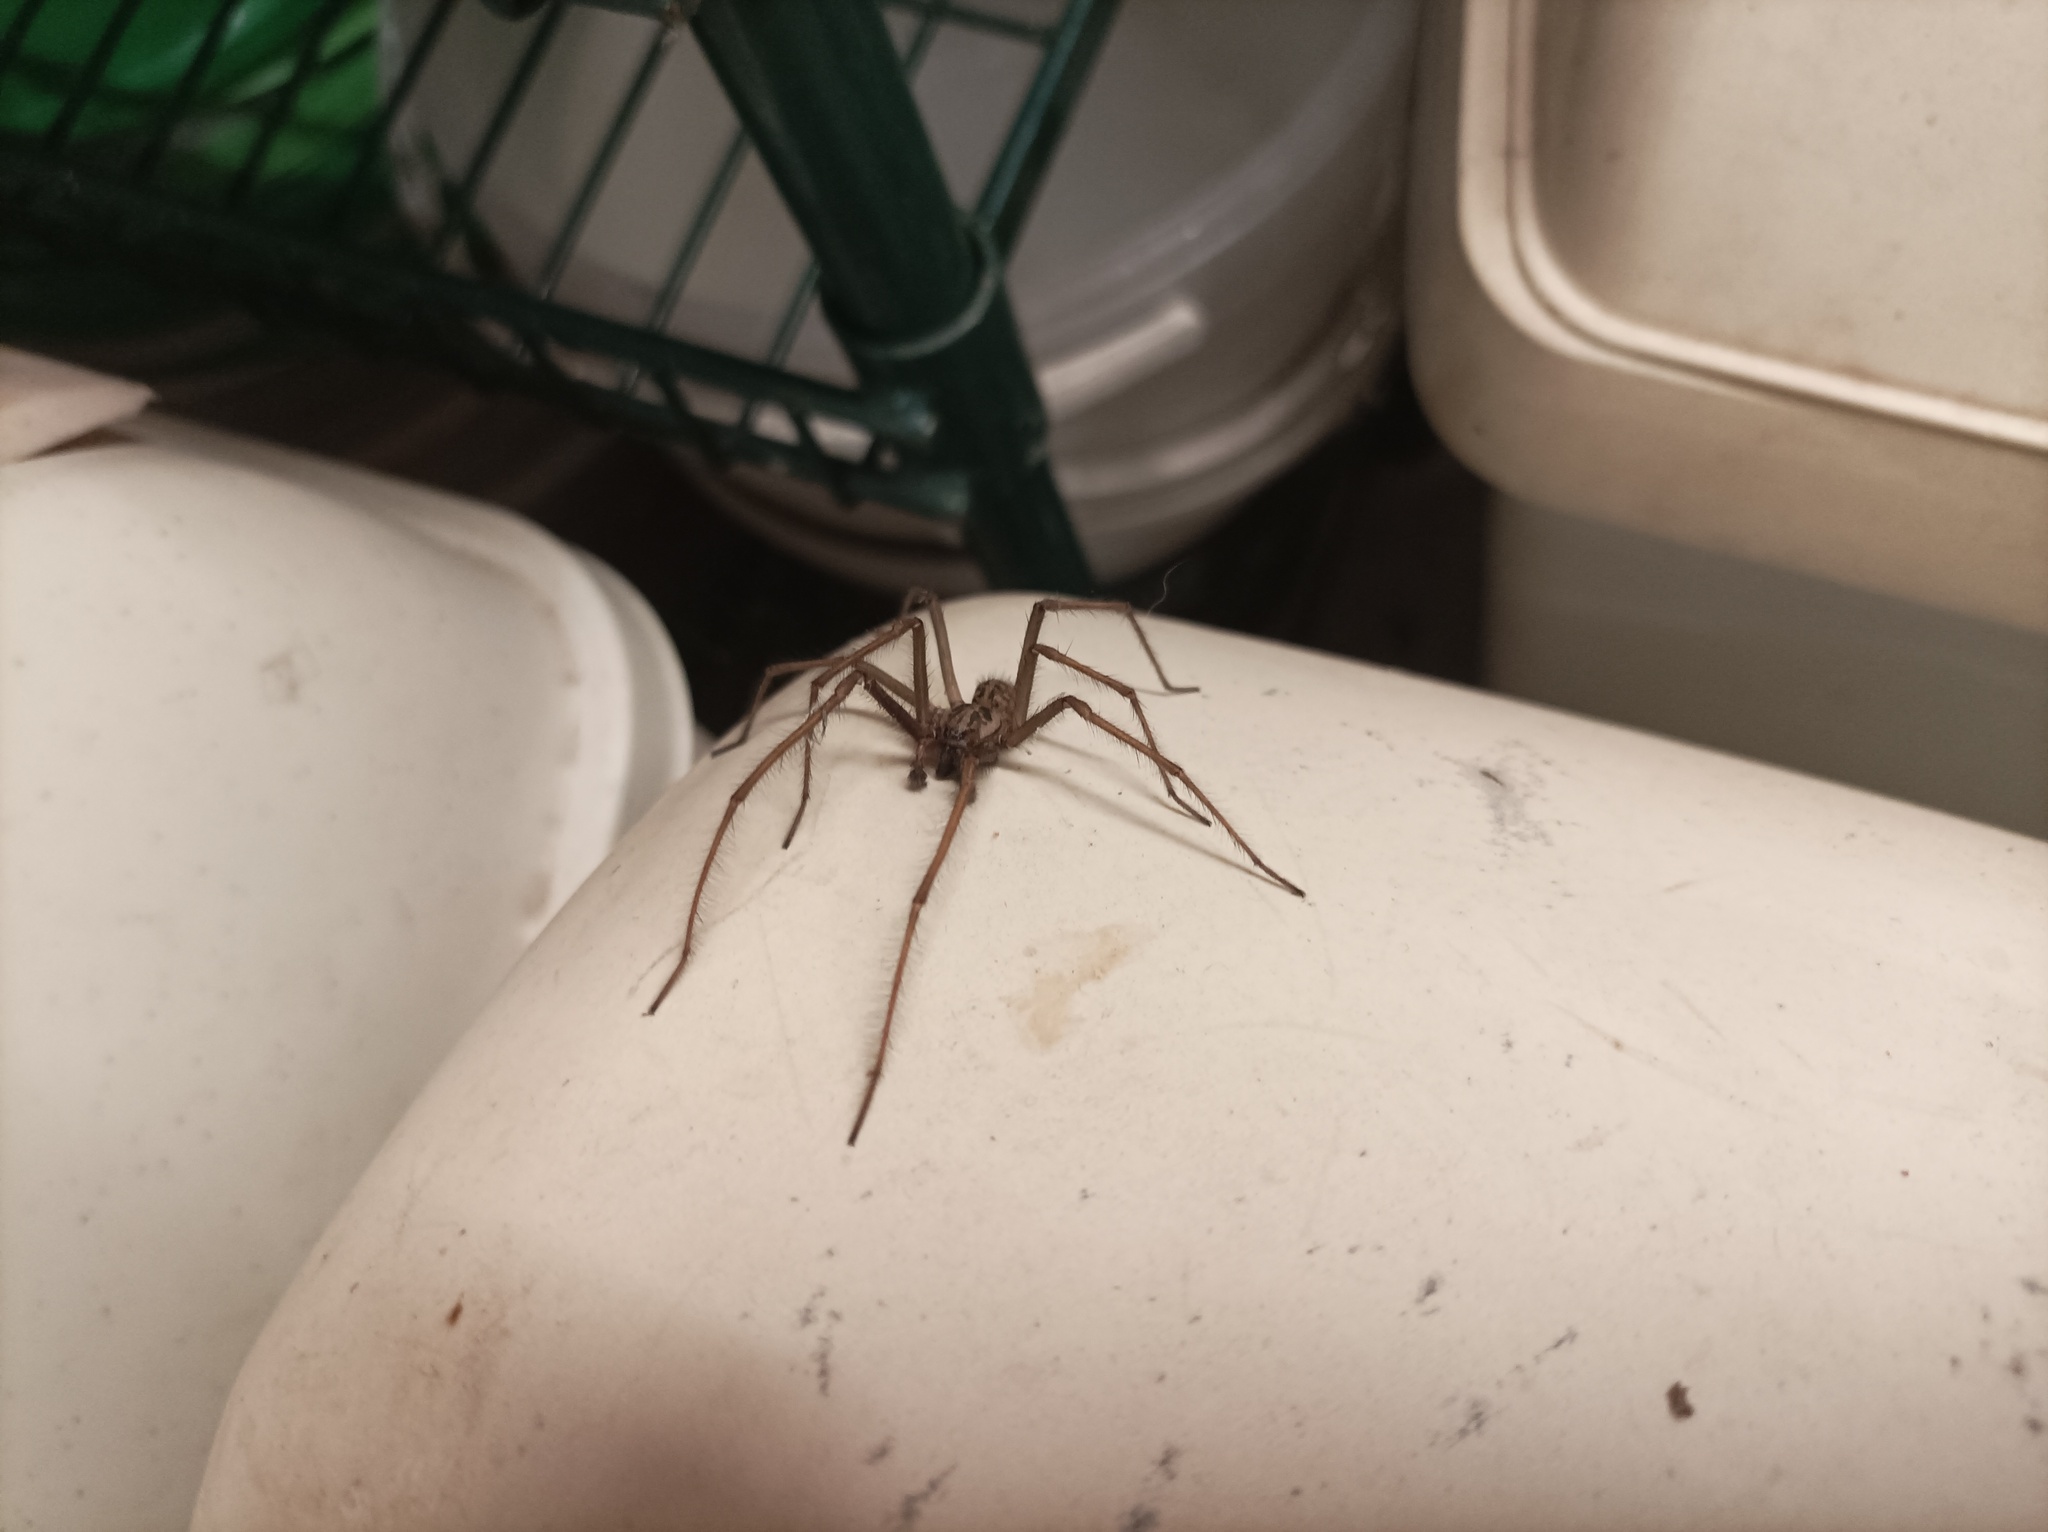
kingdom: Animalia
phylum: Arthropoda
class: Arachnida
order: Araneae
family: Agelenidae
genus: Eratigena
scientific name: Eratigena
